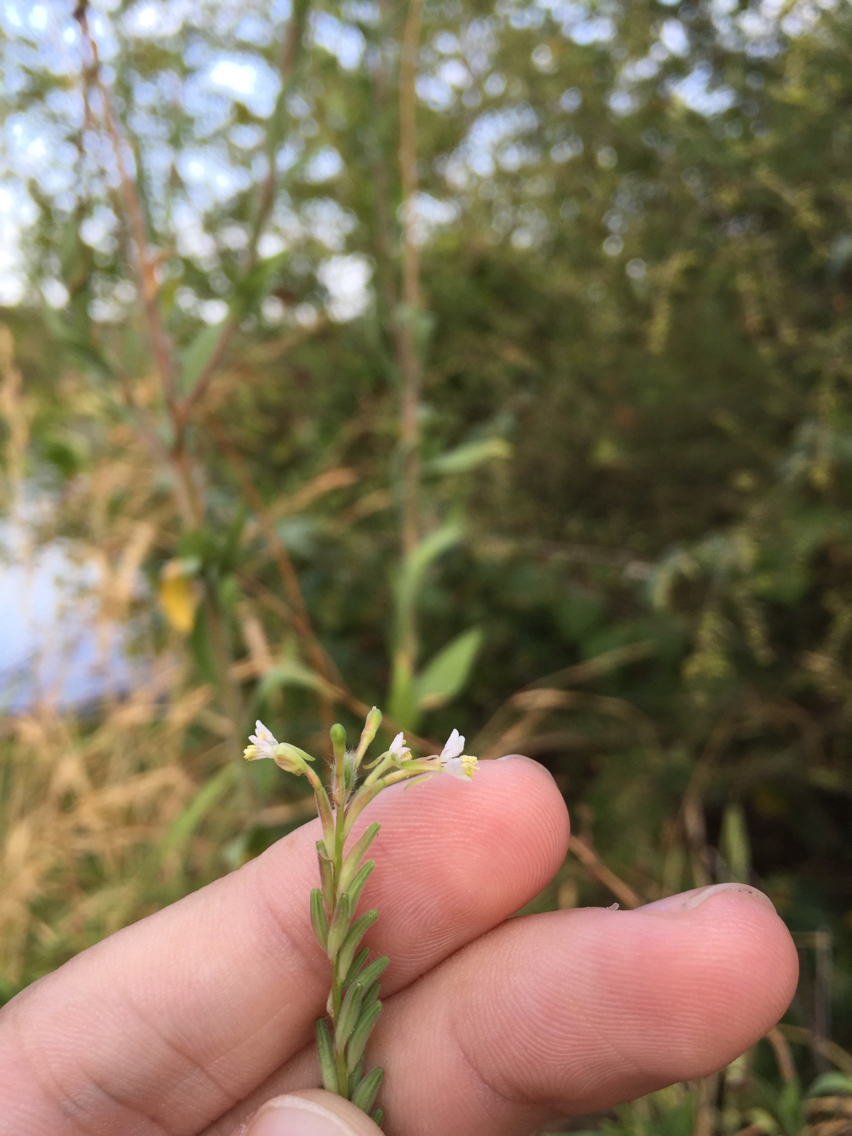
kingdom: Plantae
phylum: Tracheophyta
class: Magnoliopsida
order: Myrtales
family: Onagraceae
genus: Oenothera
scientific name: Oenothera curtiflora
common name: Velvetweed
